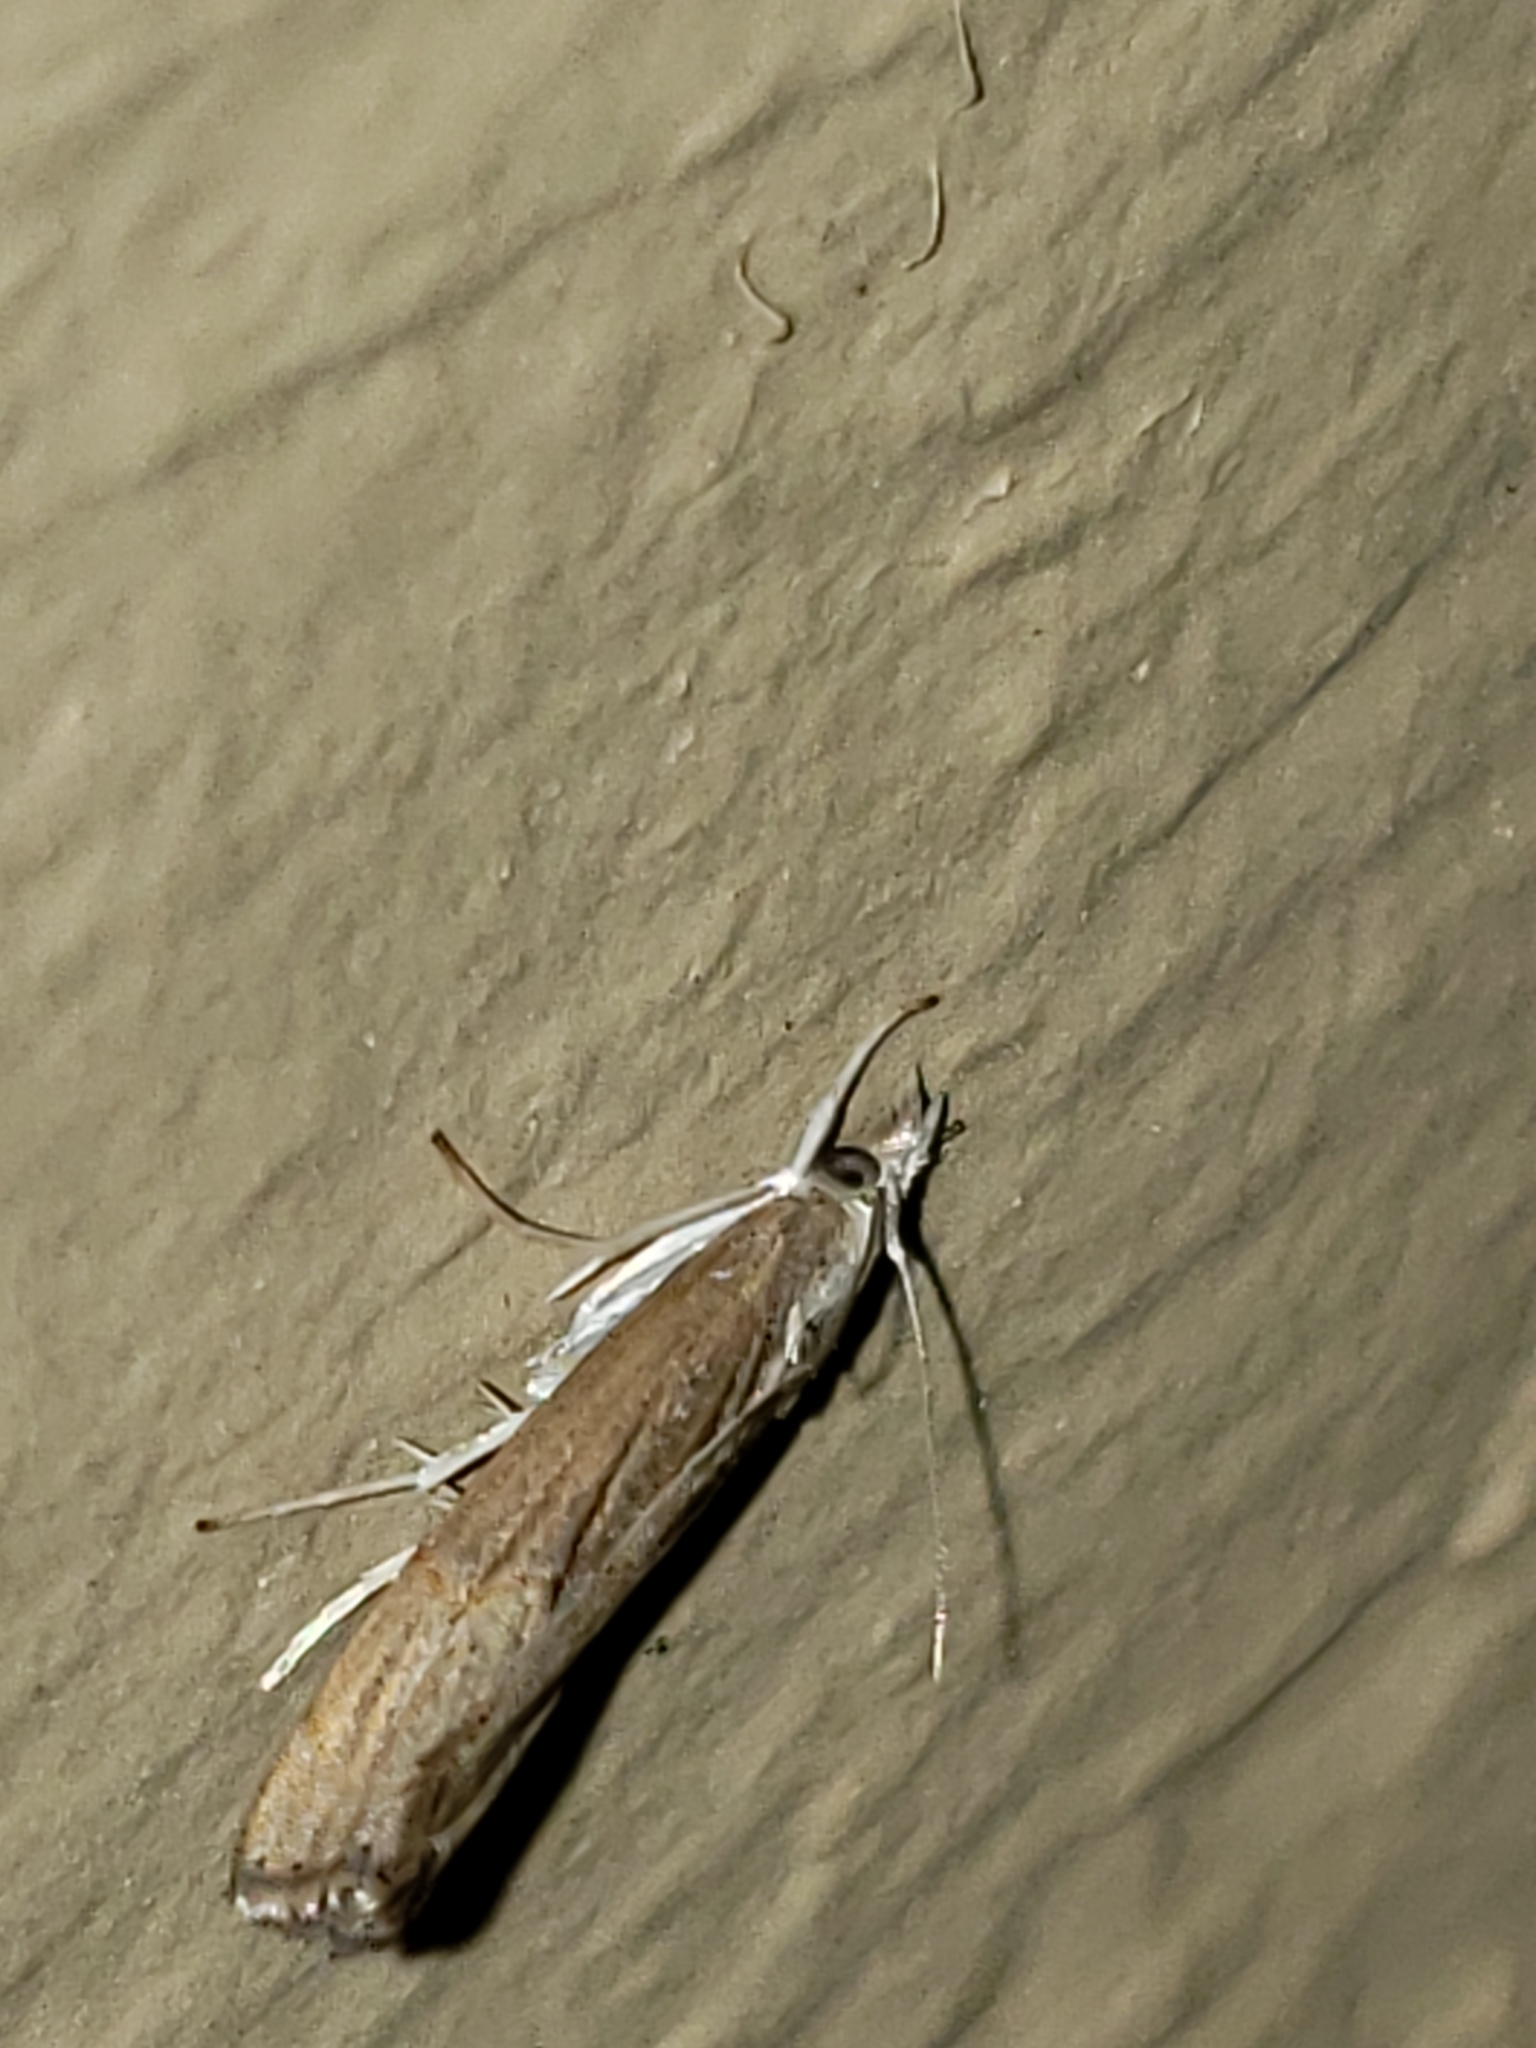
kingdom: Animalia
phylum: Arthropoda
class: Insecta
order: Lepidoptera
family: Crambidae
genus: Parapediasia
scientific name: Parapediasia teterellus
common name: Bluegrass webworm moth
